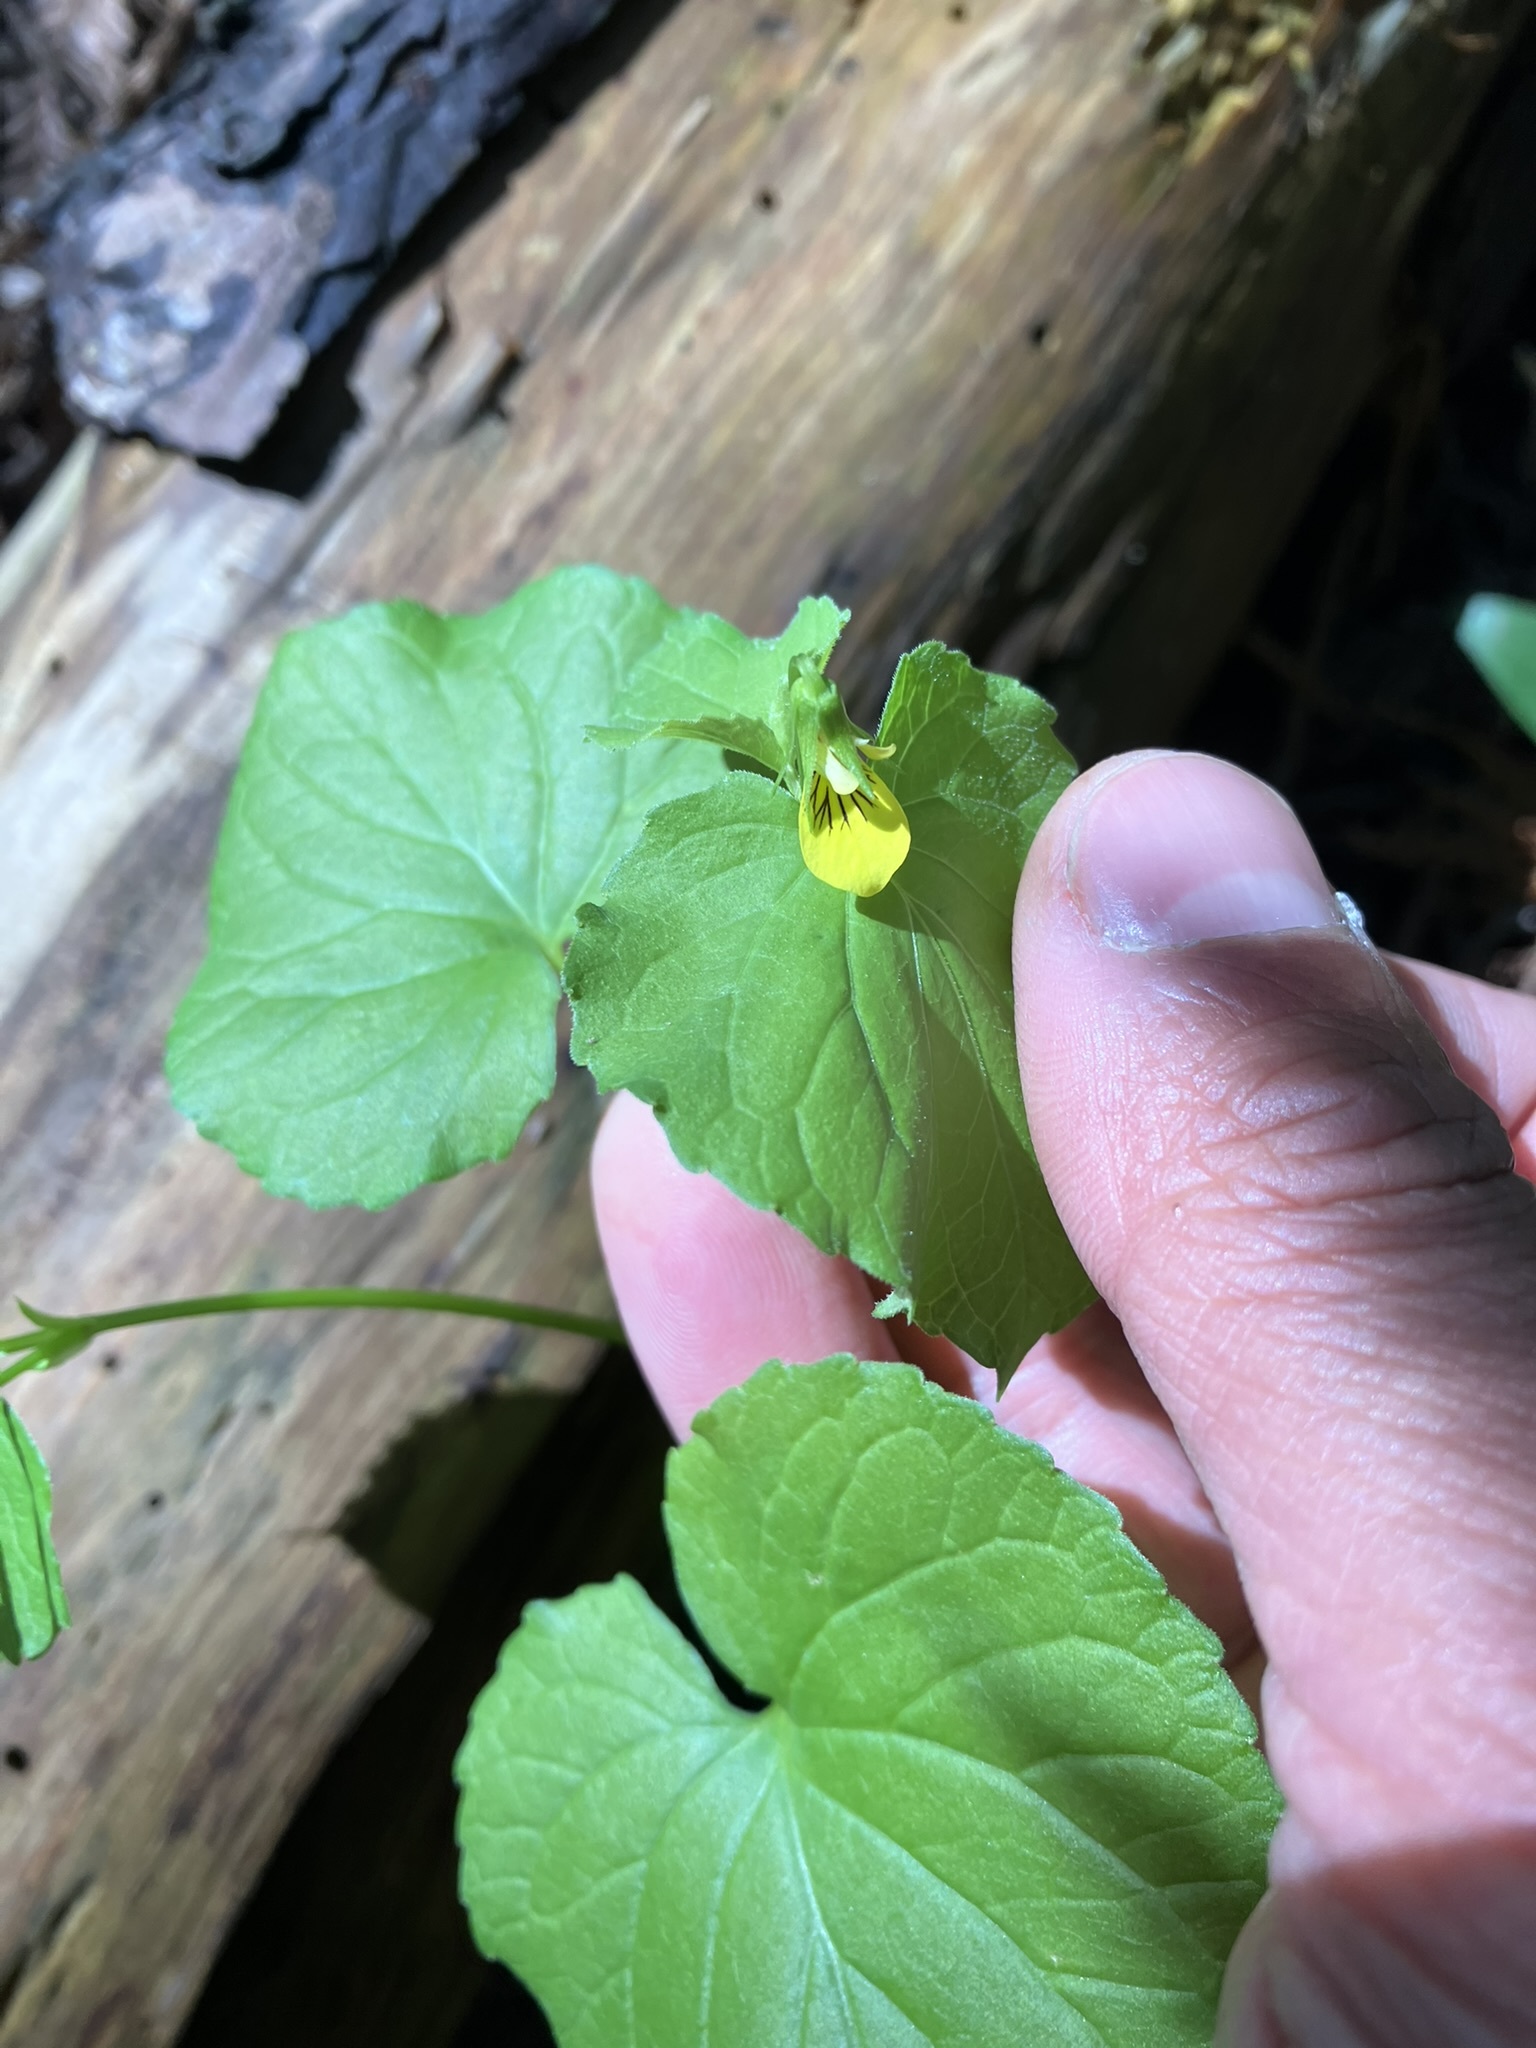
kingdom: Plantae
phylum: Tracheophyta
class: Magnoliopsida
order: Malpighiales
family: Violaceae
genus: Viola
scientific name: Viola glabella
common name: Stream violet
